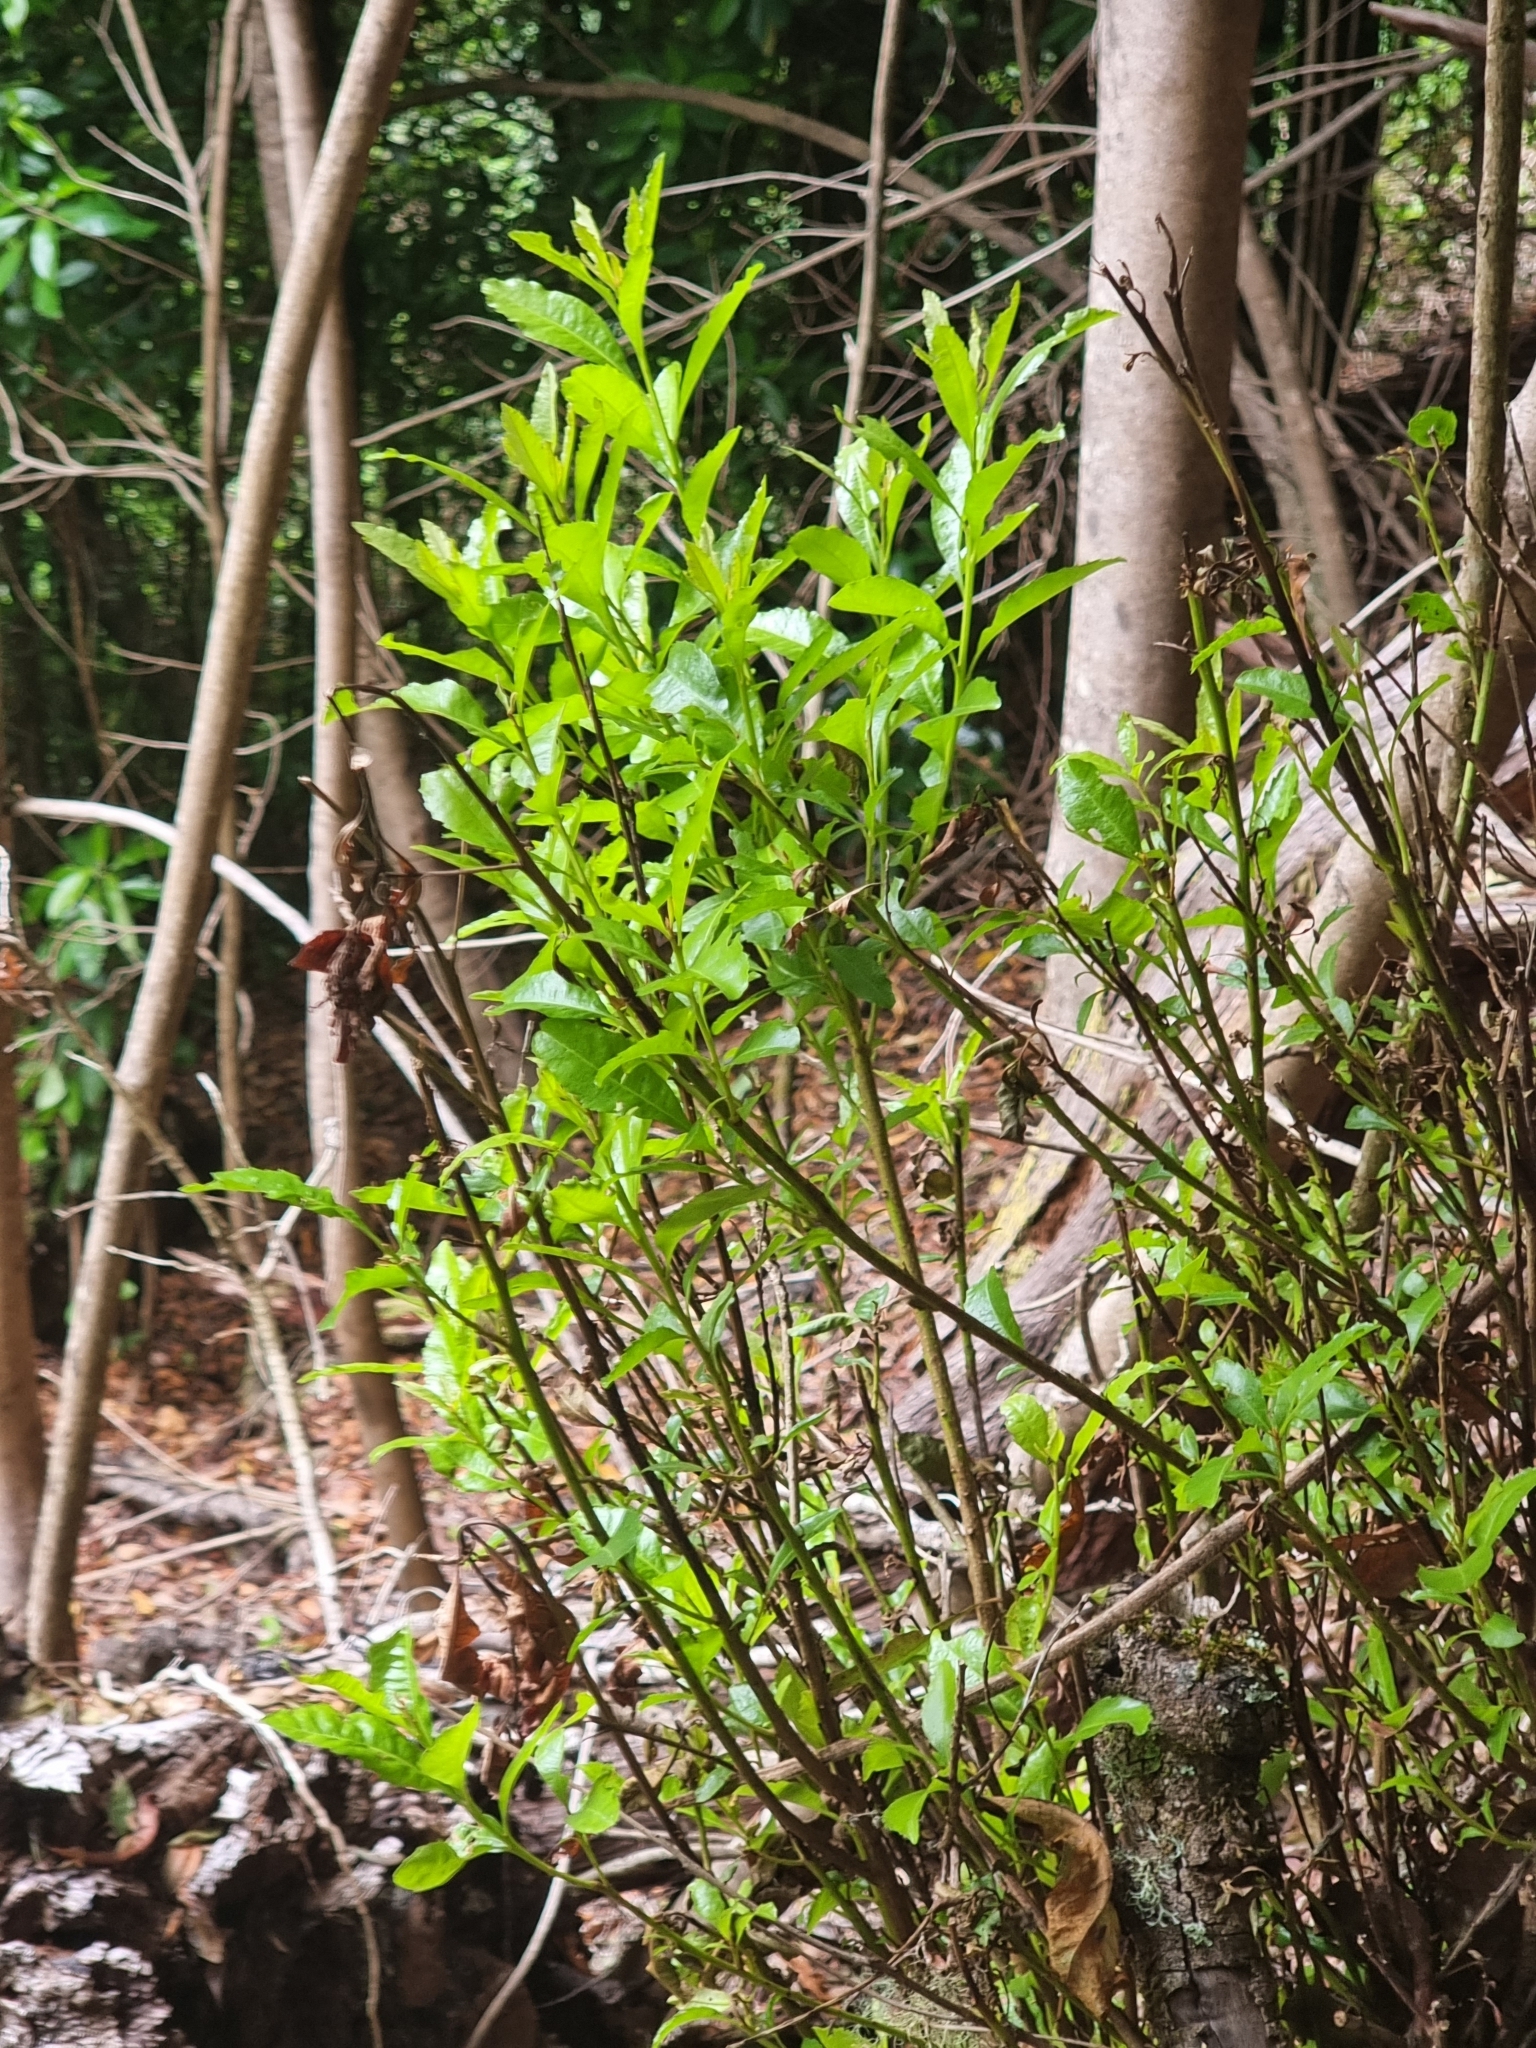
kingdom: Plantae
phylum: Tracheophyta
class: Magnoliopsida
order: Fagales
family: Myricaceae
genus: Morella
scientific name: Morella faya
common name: Firetree
